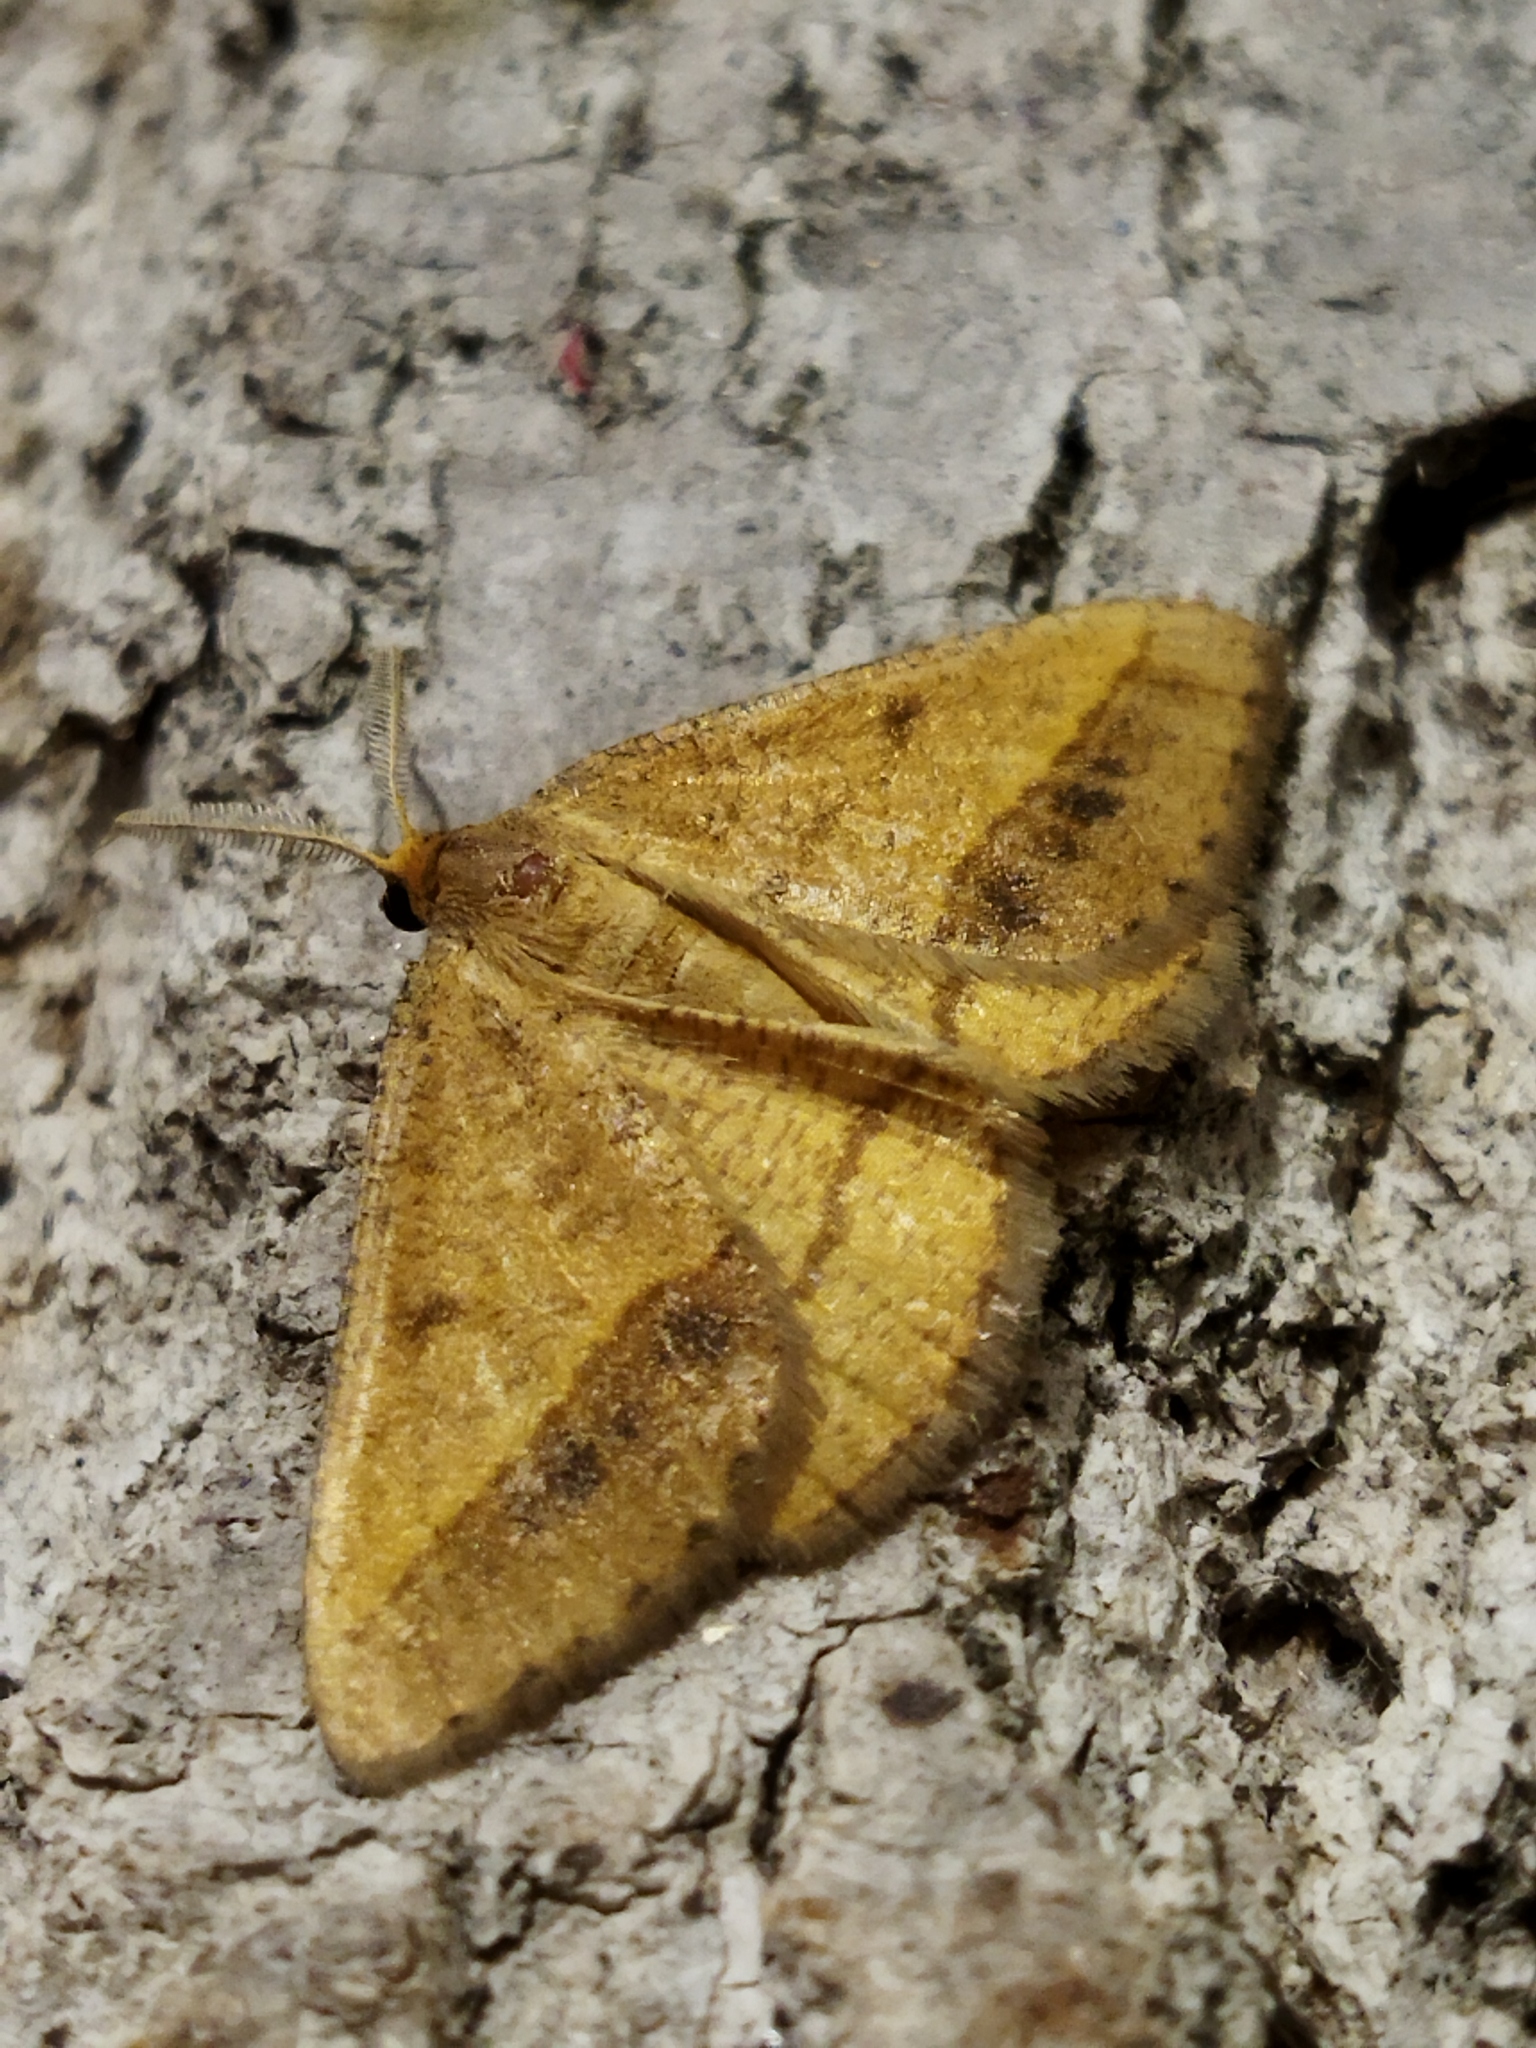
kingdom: Animalia
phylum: Arthropoda
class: Insecta
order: Lepidoptera
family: Geometridae
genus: Tephrina
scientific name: Tephrina arenacearia
